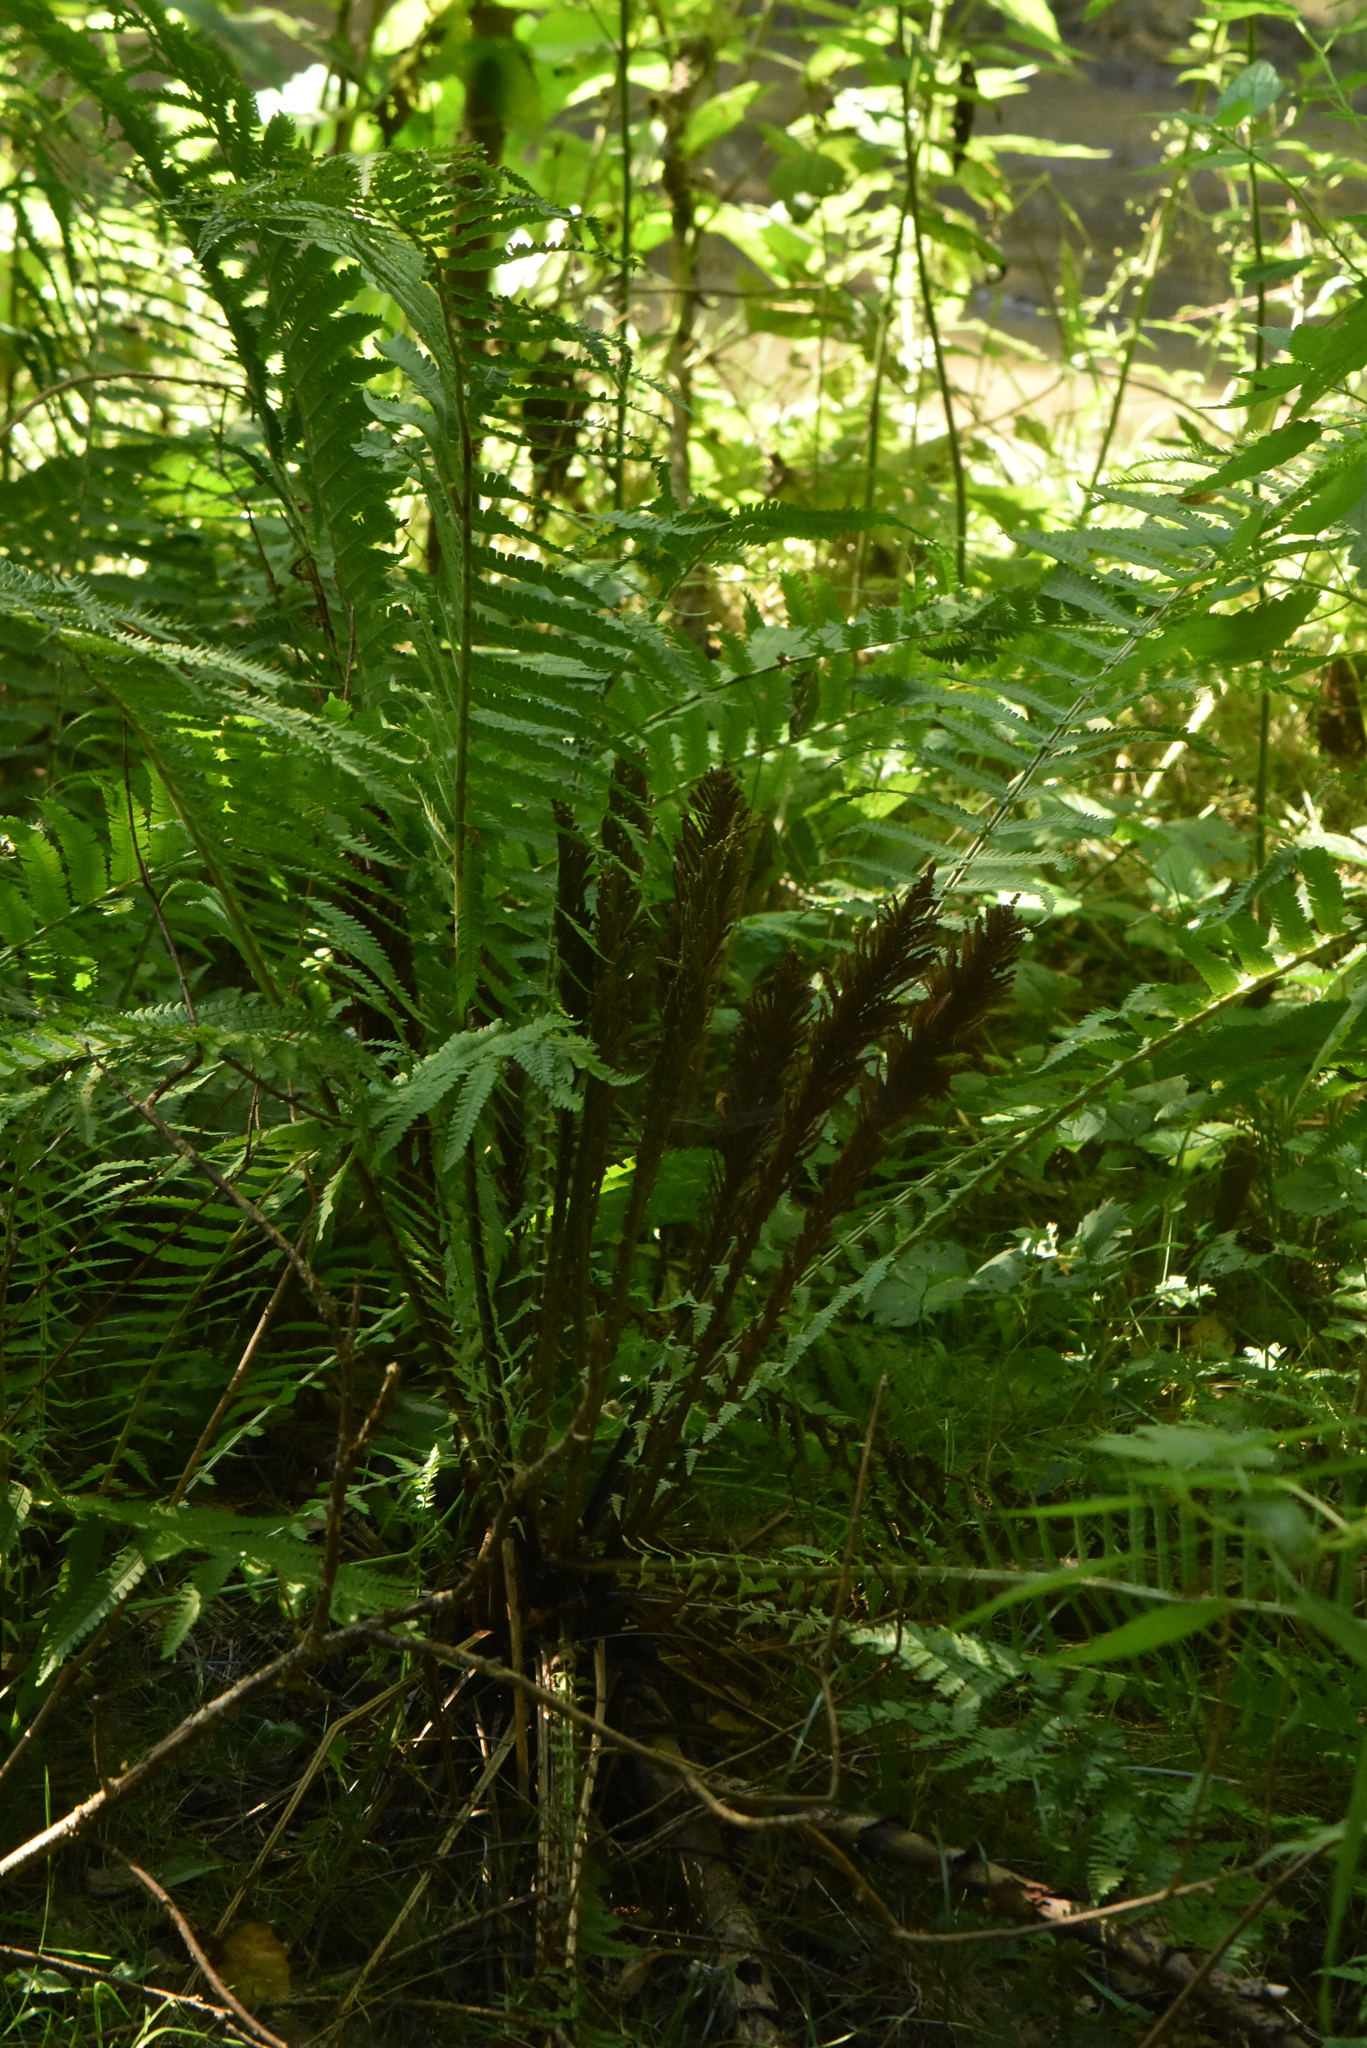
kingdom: Plantae
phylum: Tracheophyta
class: Polypodiopsida
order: Polypodiales
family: Onocleaceae
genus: Matteuccia
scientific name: Matteuccia struthiopteris
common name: Ostrich fern
